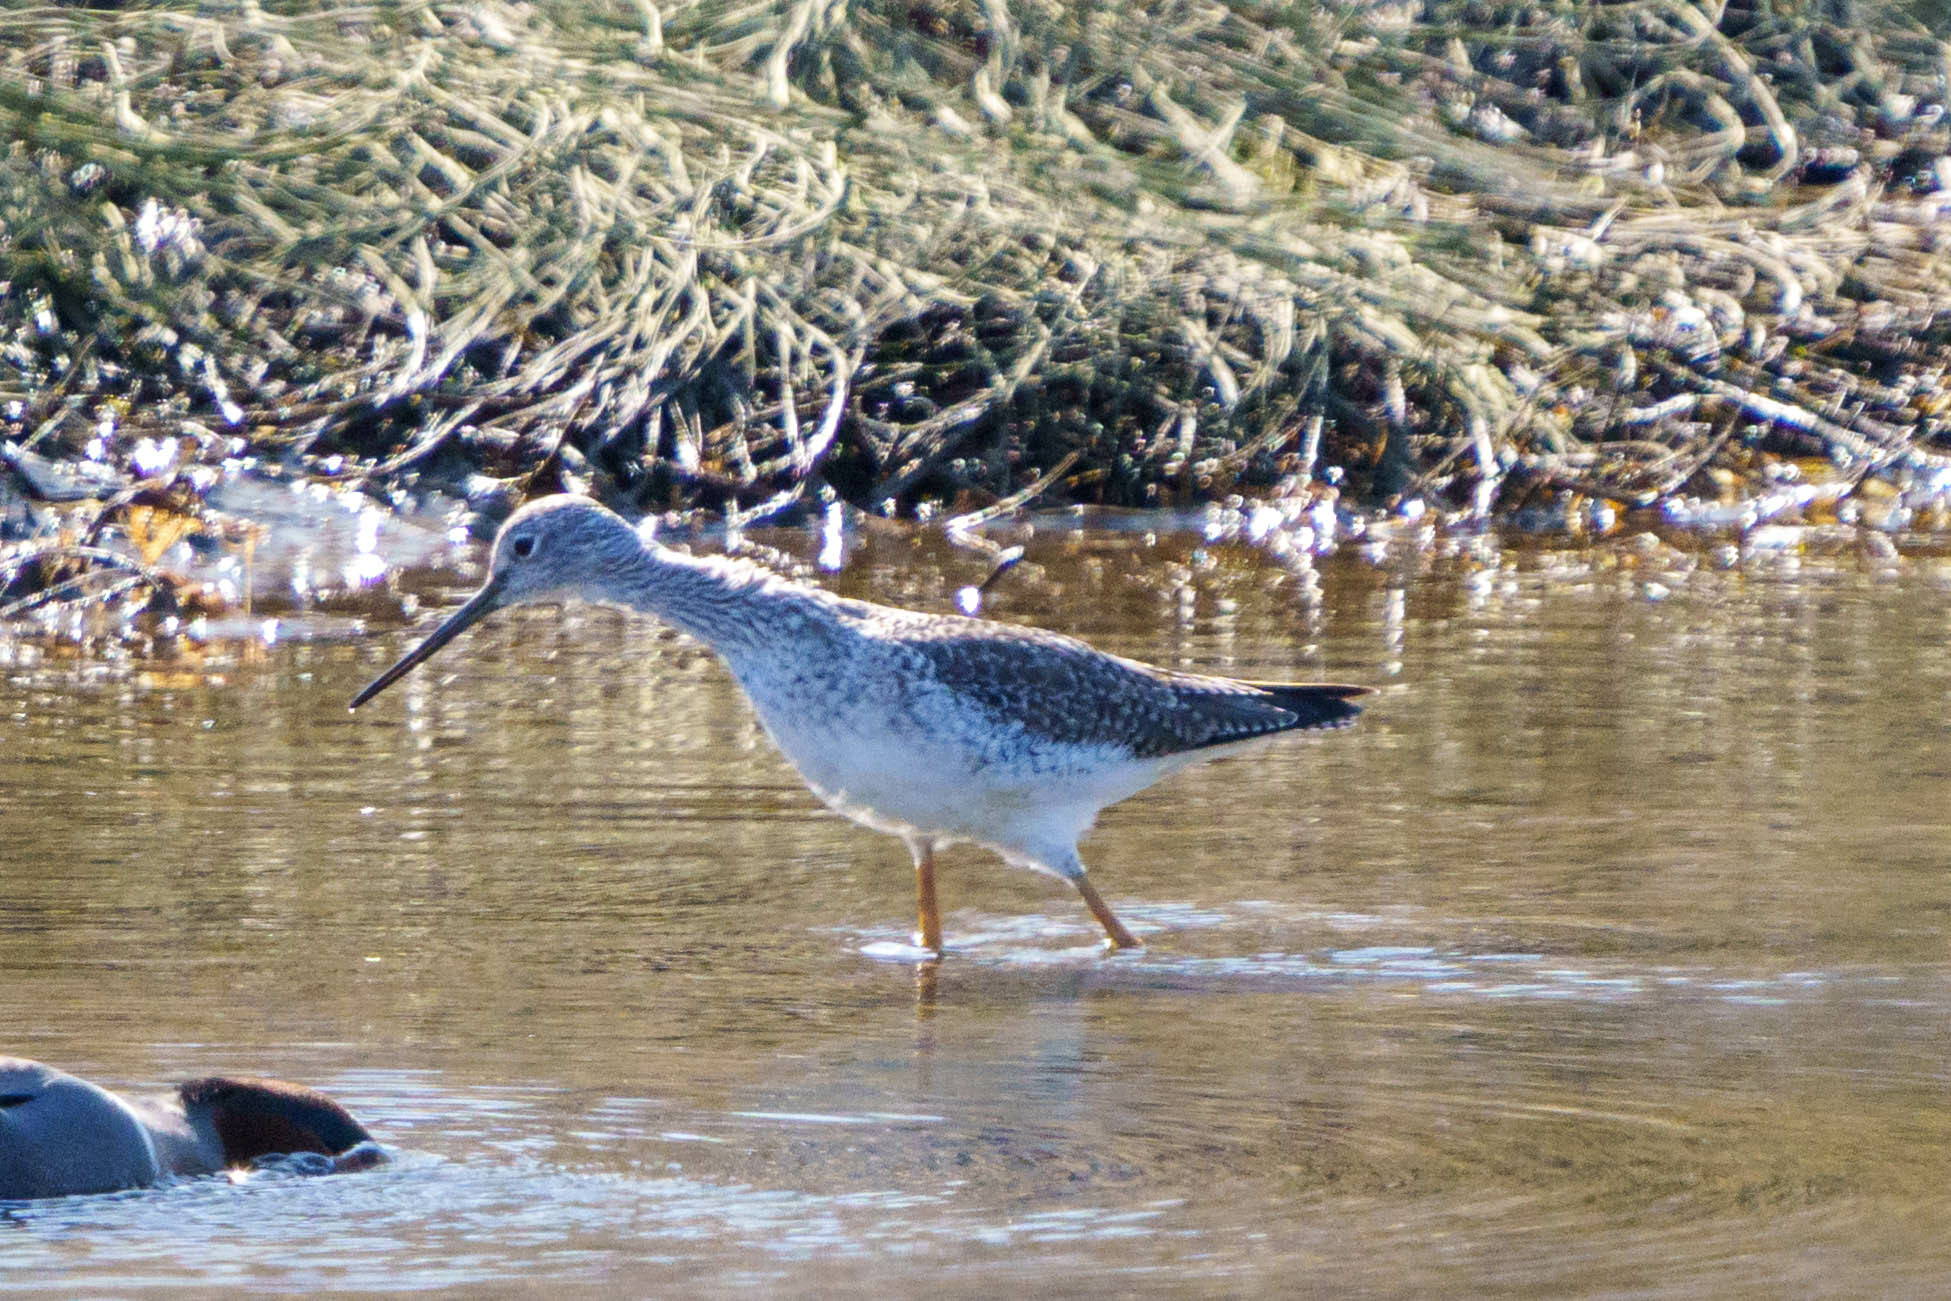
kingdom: Animalia
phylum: Chordata
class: Aves
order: Charadriiformes
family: Scolopacidae
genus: Tringa
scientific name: Tringa melanoleuca
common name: Greater yellowlegs
